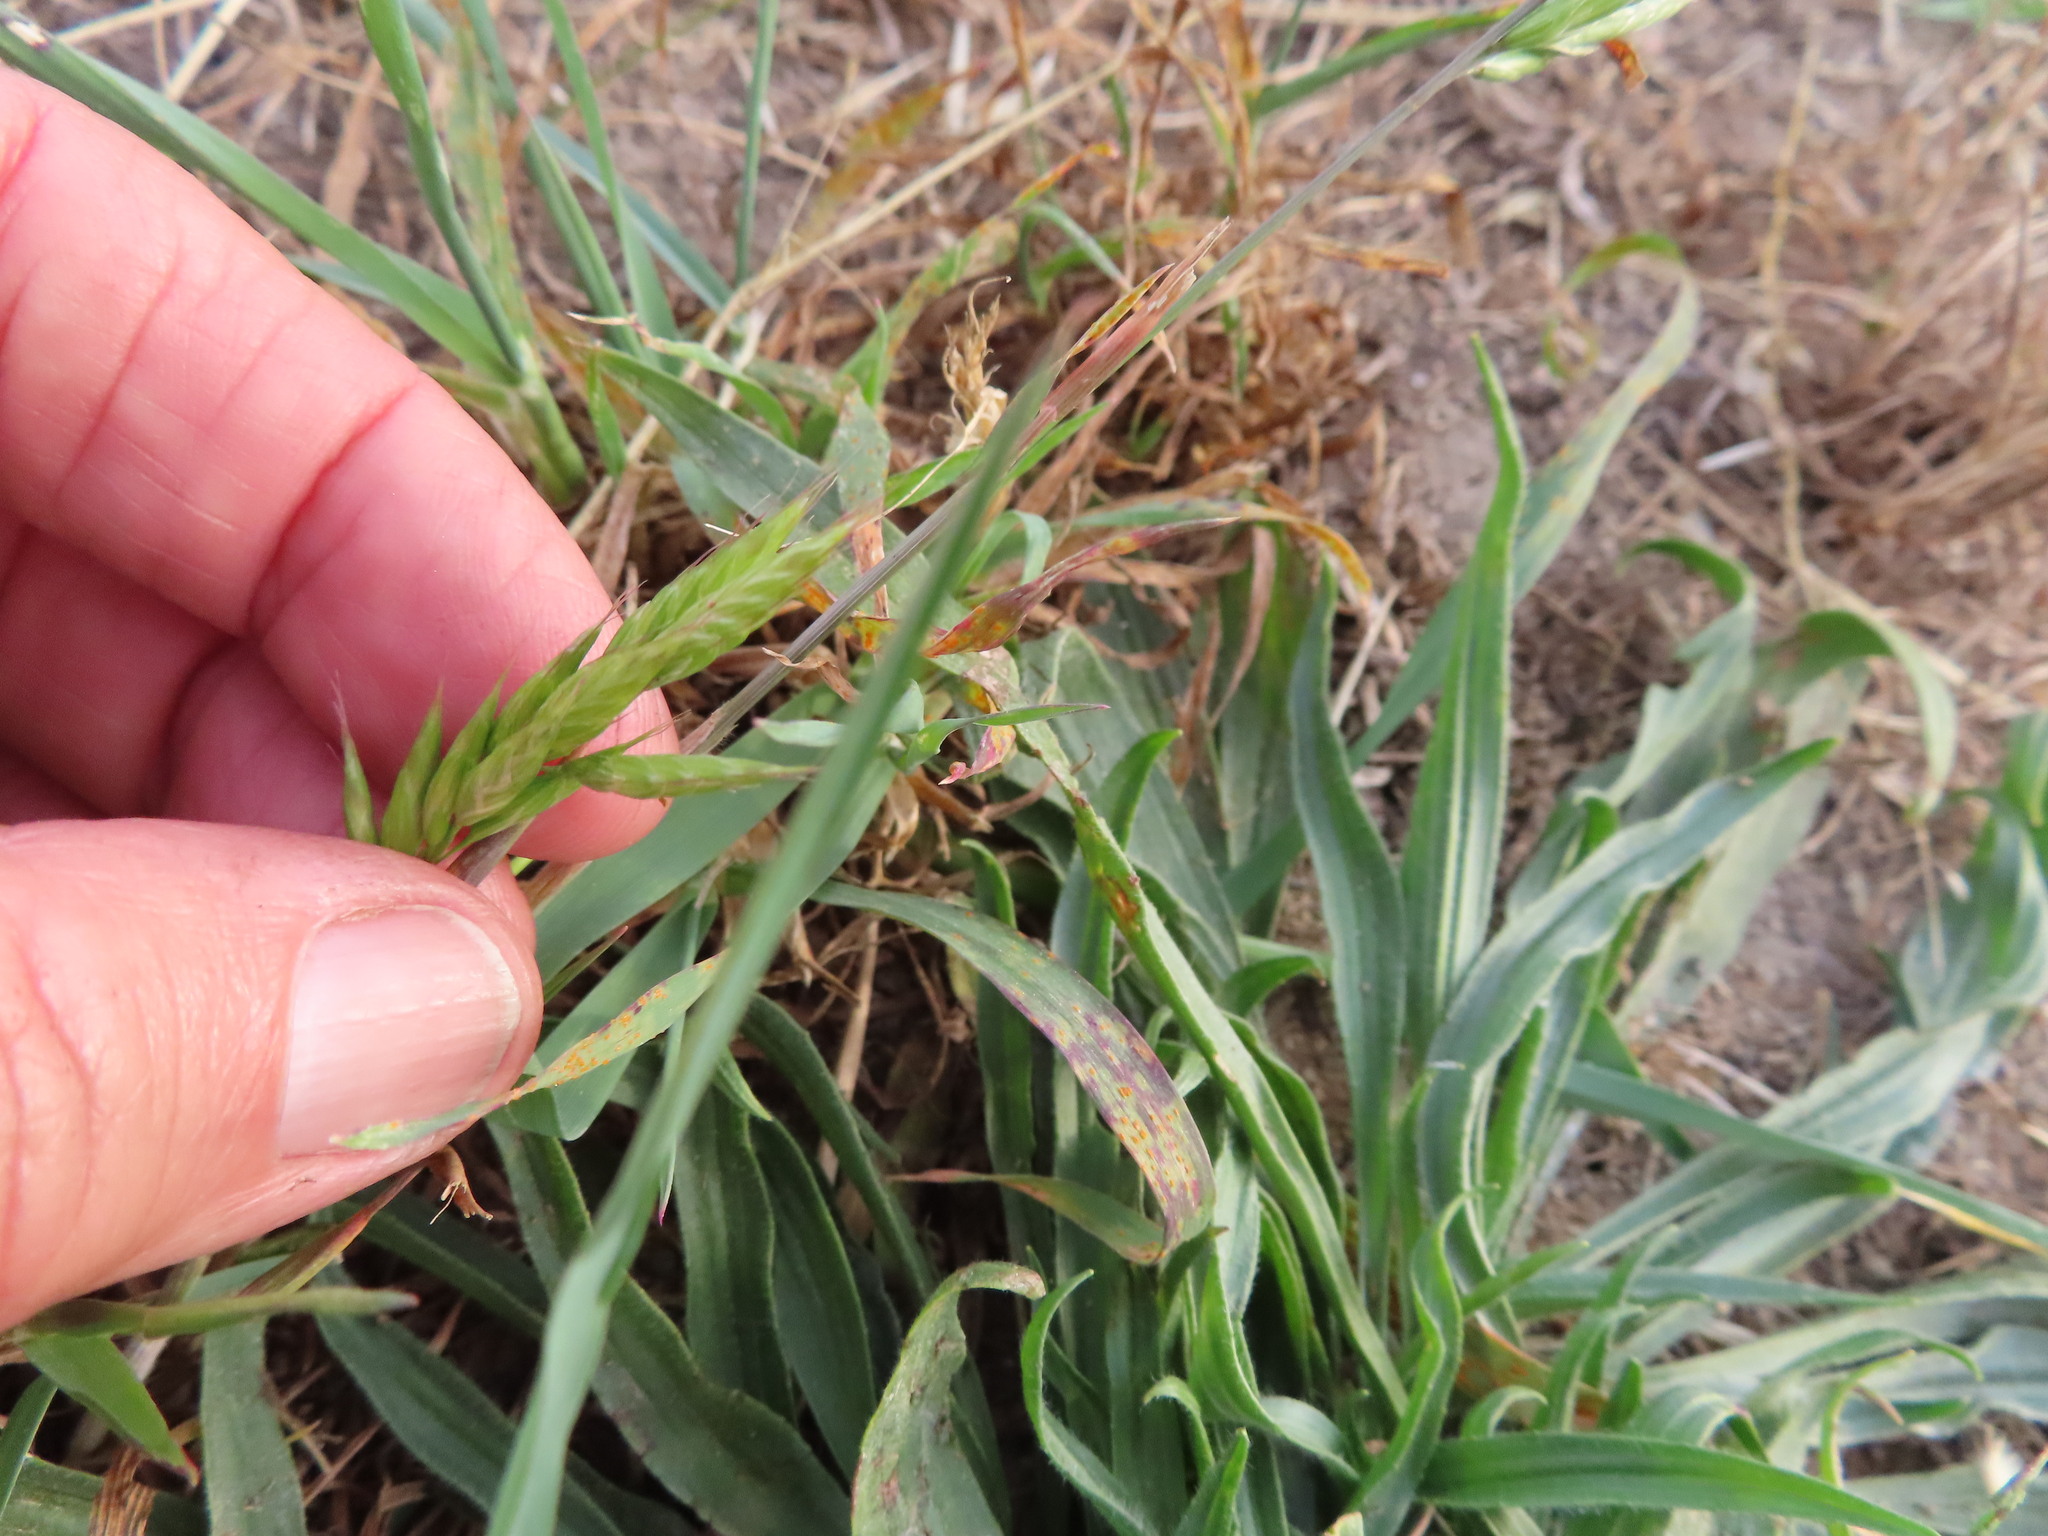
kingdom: Plantae
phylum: Tracheophyta
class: Liliopsida
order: Poales
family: Poaceae
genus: Bromus
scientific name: Bromus hordeaceus
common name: Soft brome
